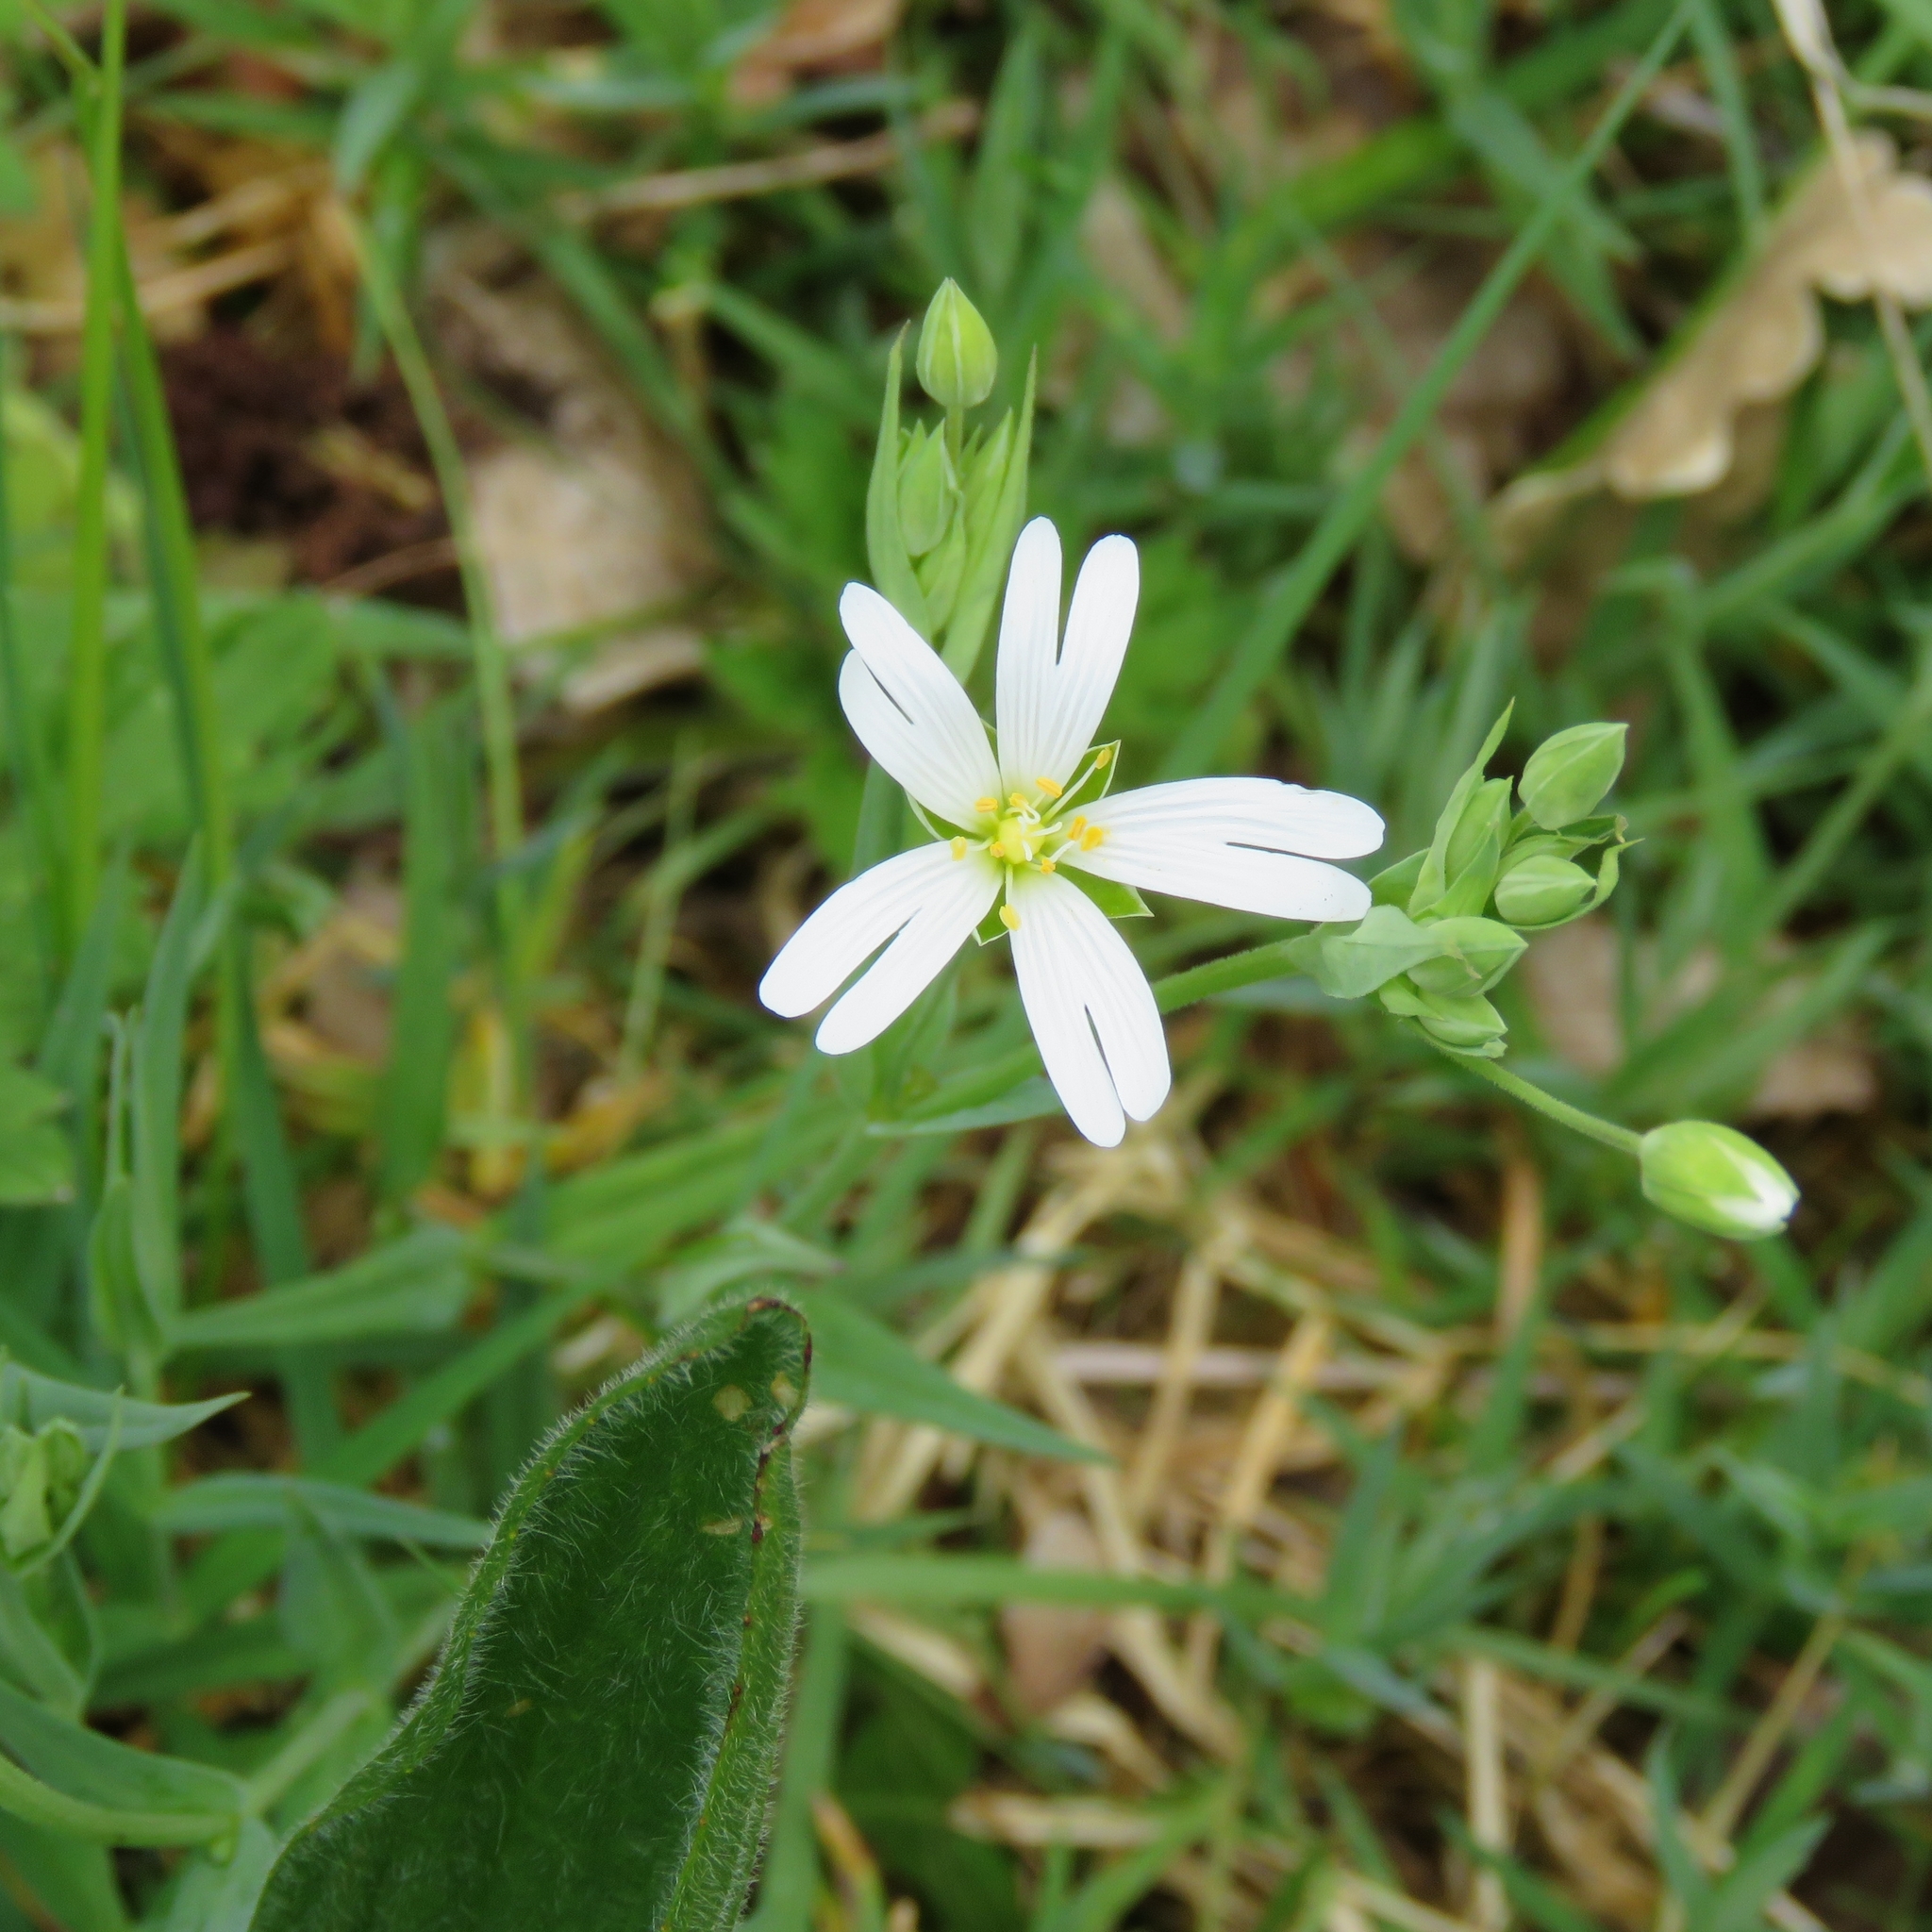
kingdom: Plantae
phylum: Tracheophyta
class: Magnoliopsida
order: Caryophyllales
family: Caryophyllaceae
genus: Rabelera
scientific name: Rabelera holostea
